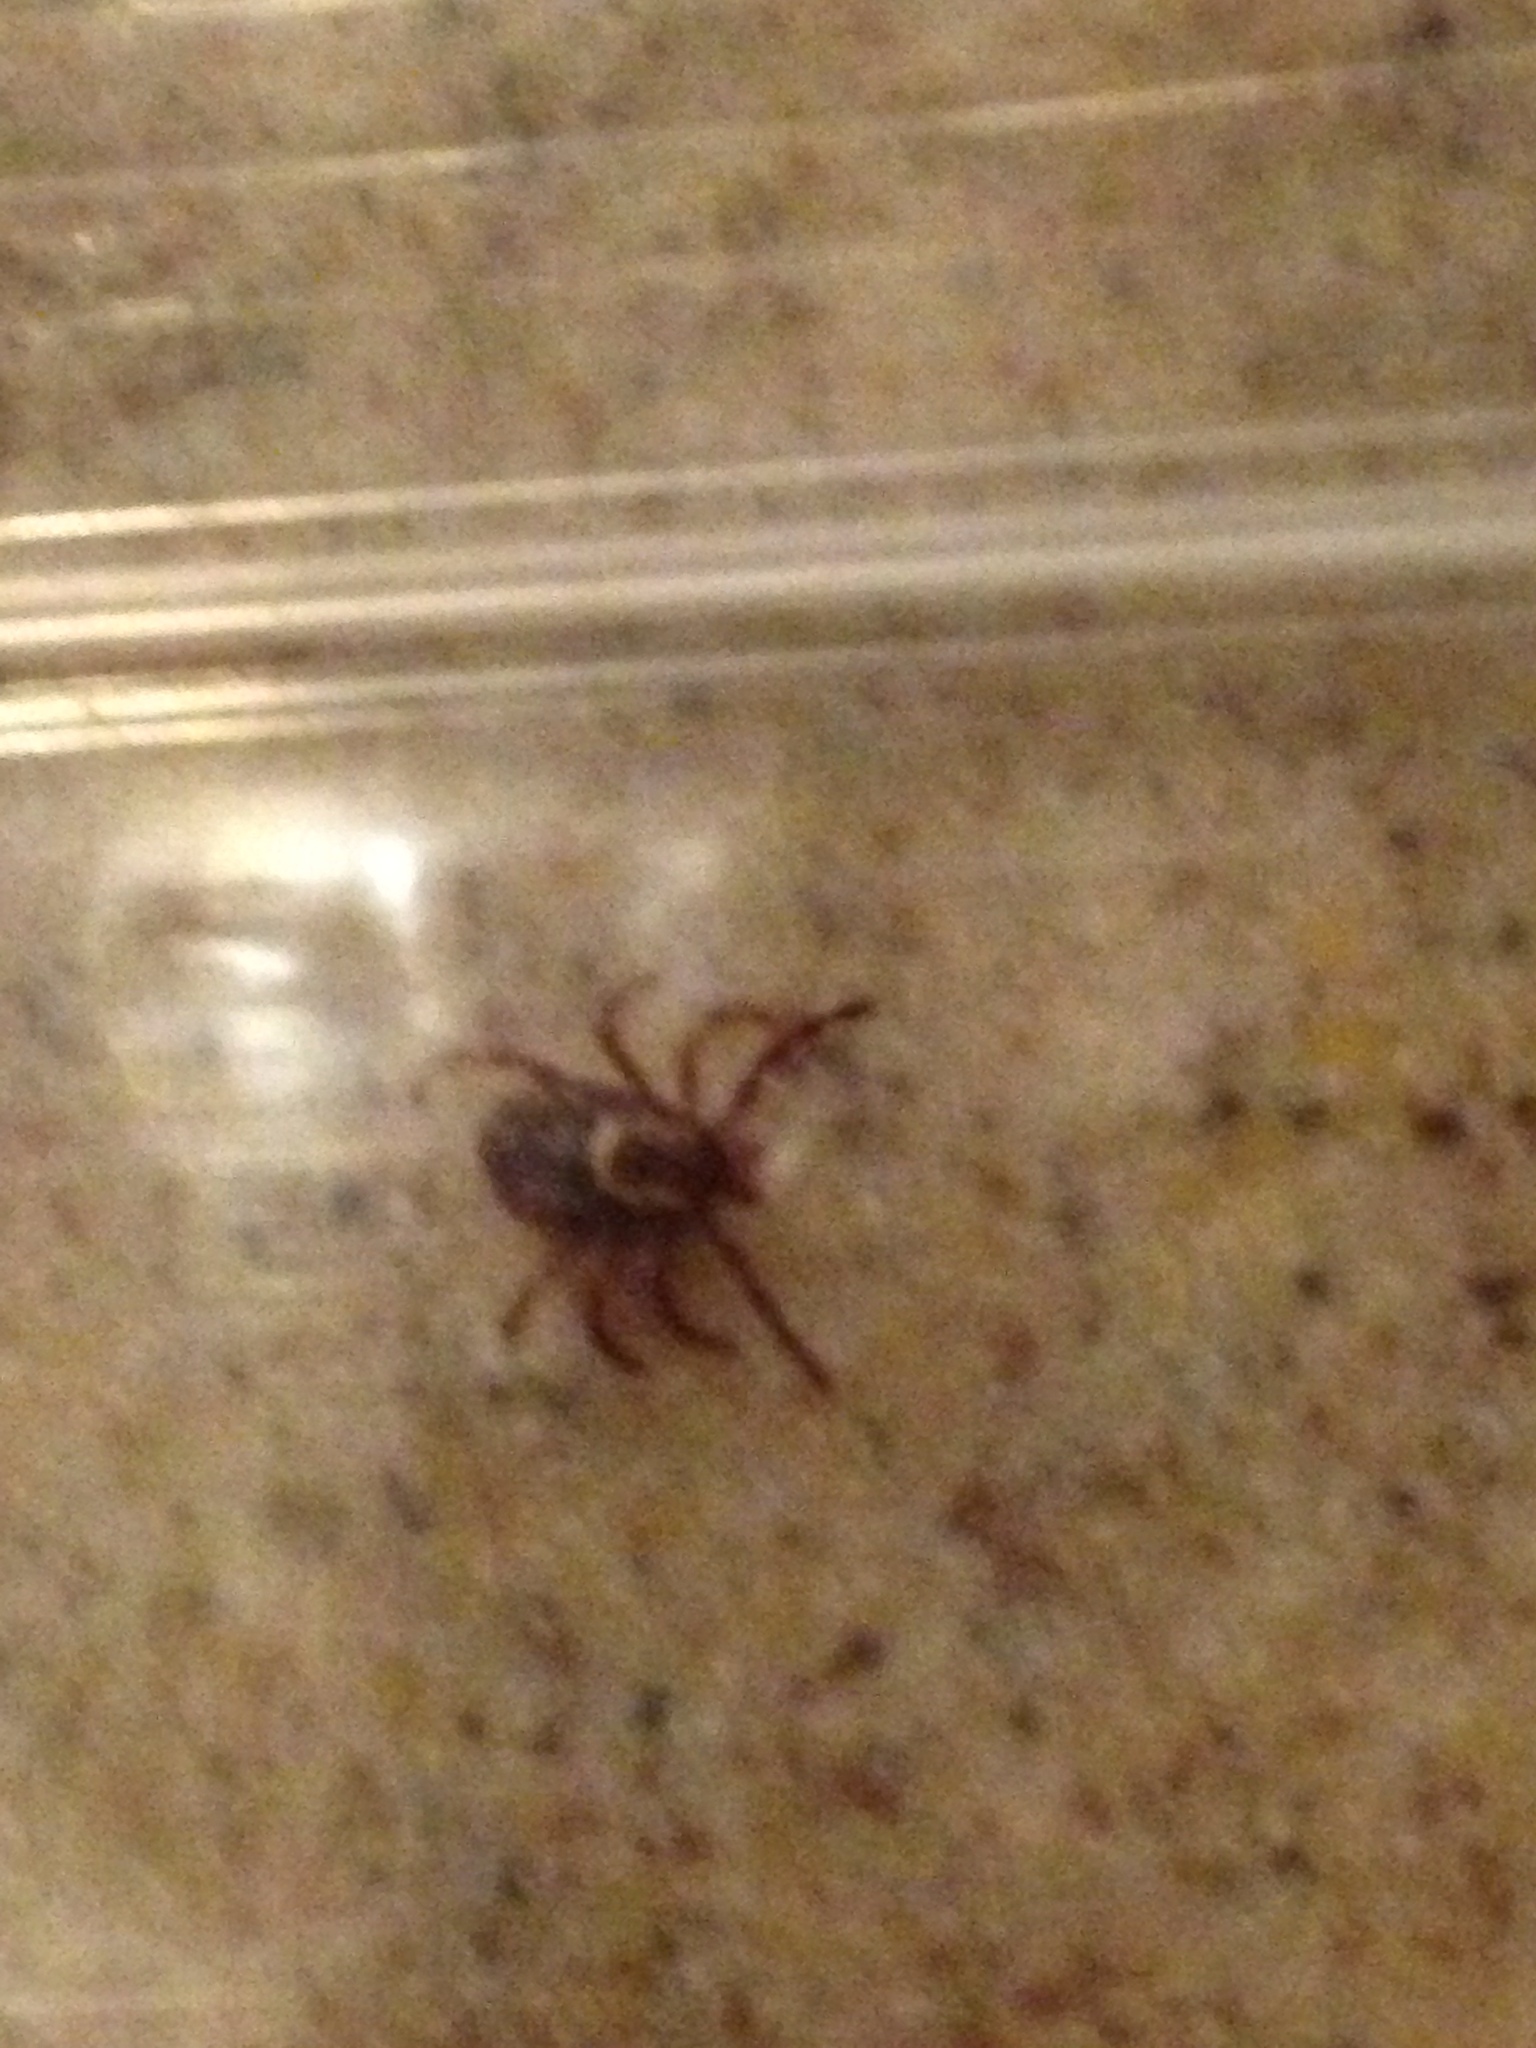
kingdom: Animalia
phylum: Arthropoda
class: Arachnida
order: Ixodida
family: Ixodidae
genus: Dermacentor
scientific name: Dermacentor variabilis
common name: American dog tick
